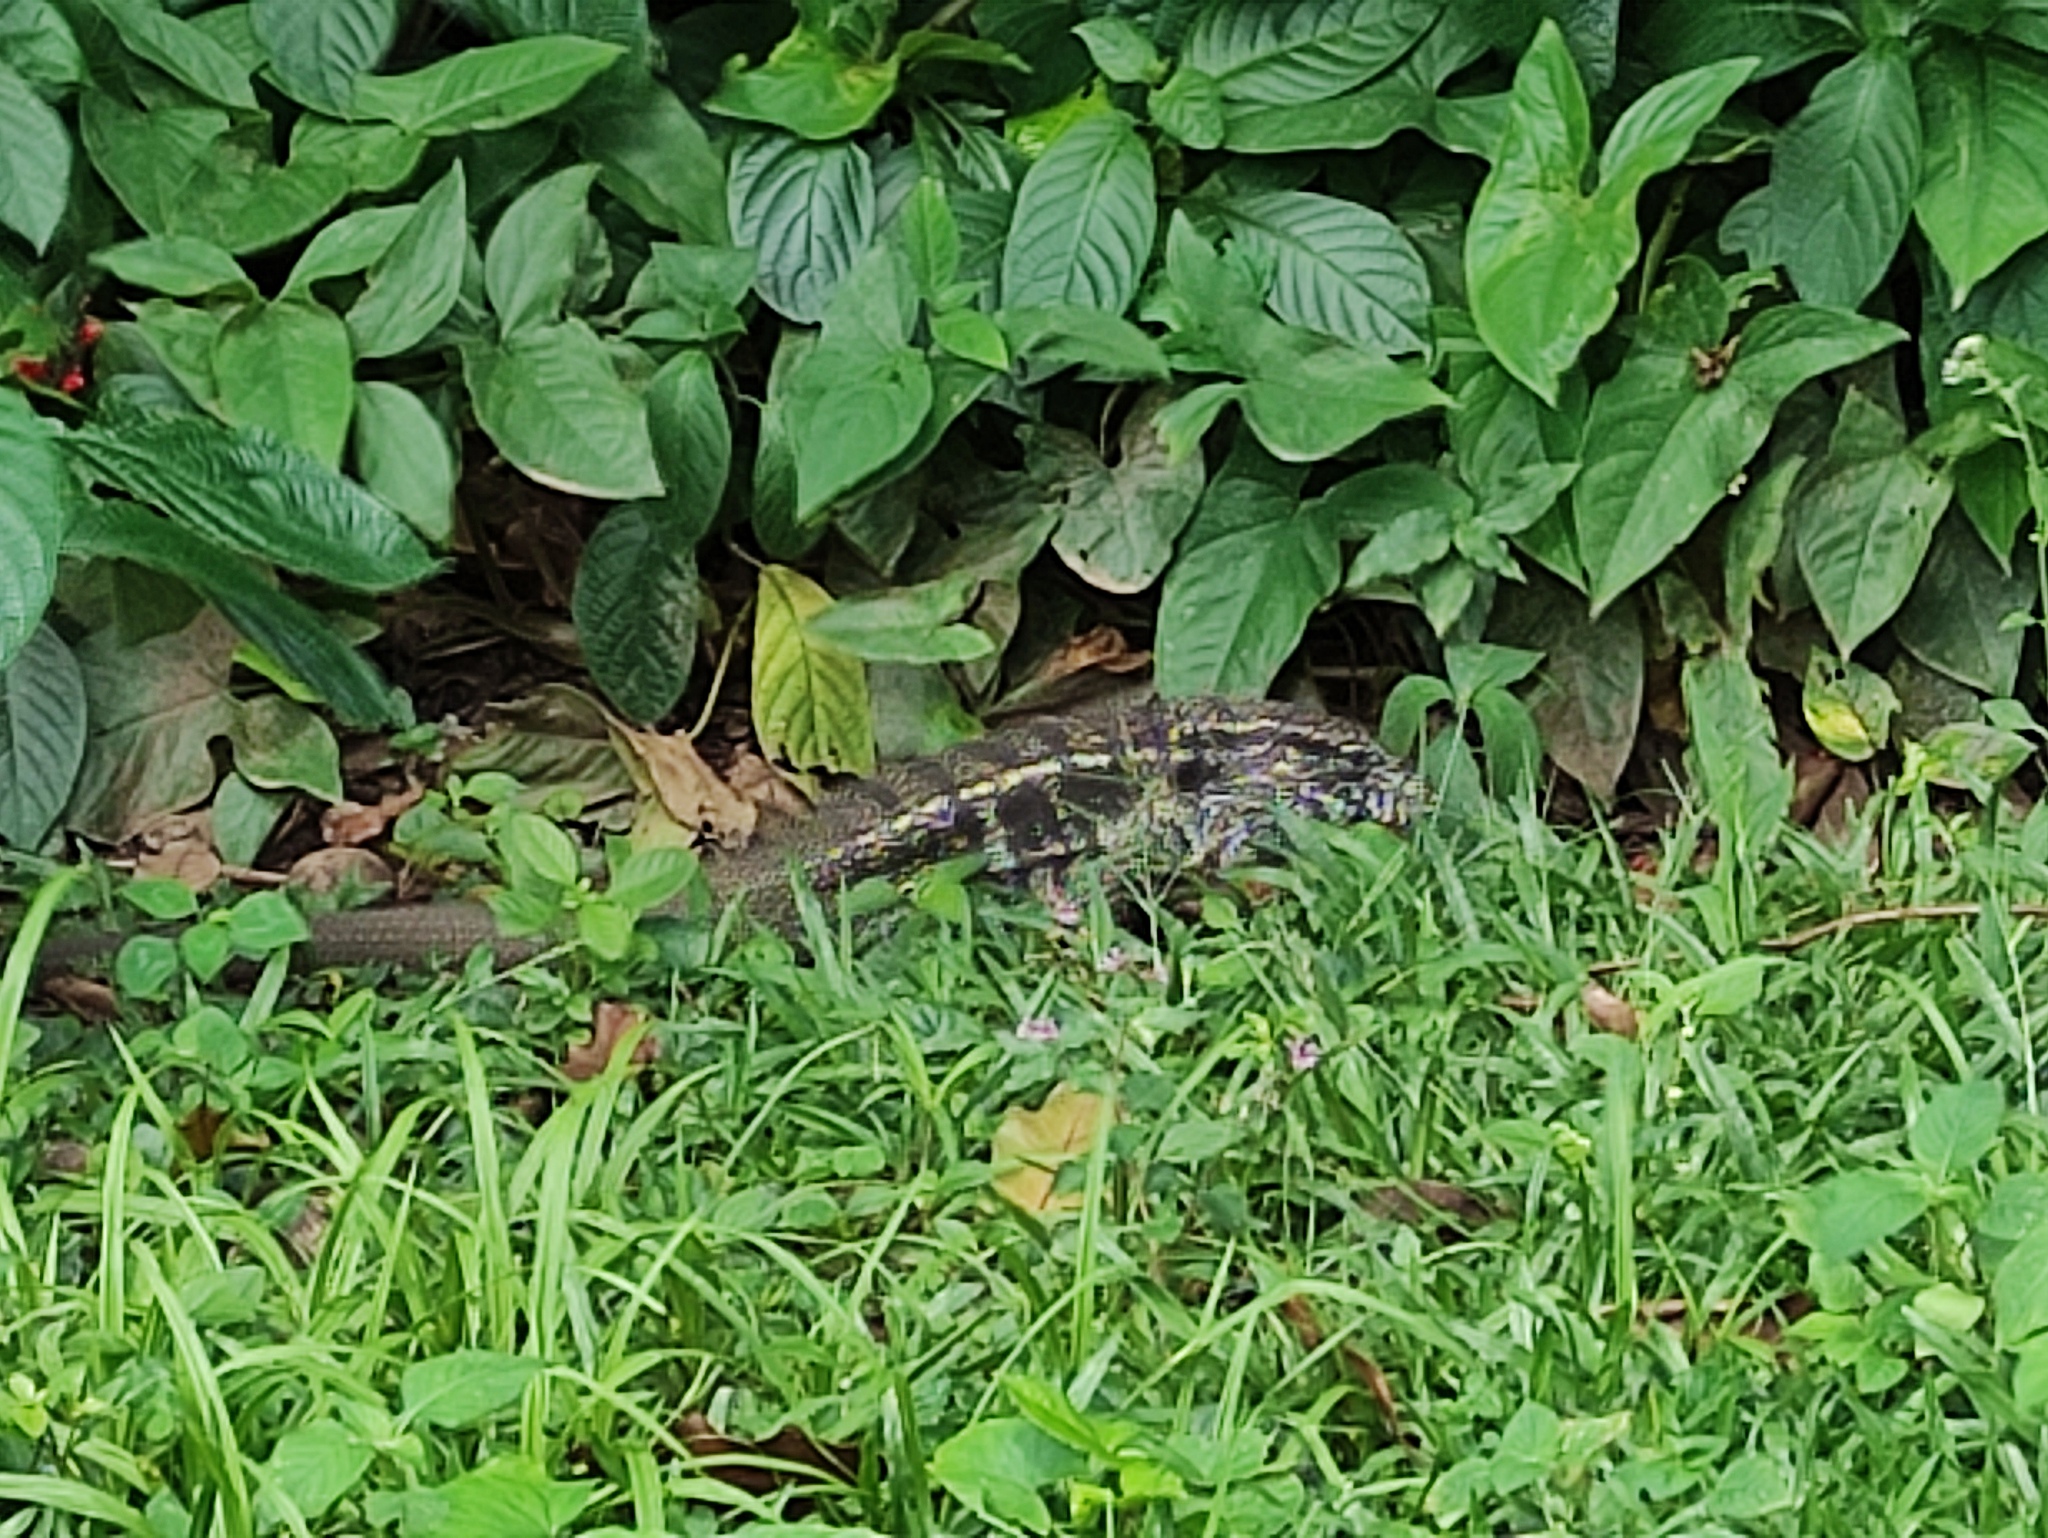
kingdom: Animalia
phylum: Chordata
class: Squamata
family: Teiidae
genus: Salvator
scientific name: Salvator merianae
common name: Argentine black and white tegu
